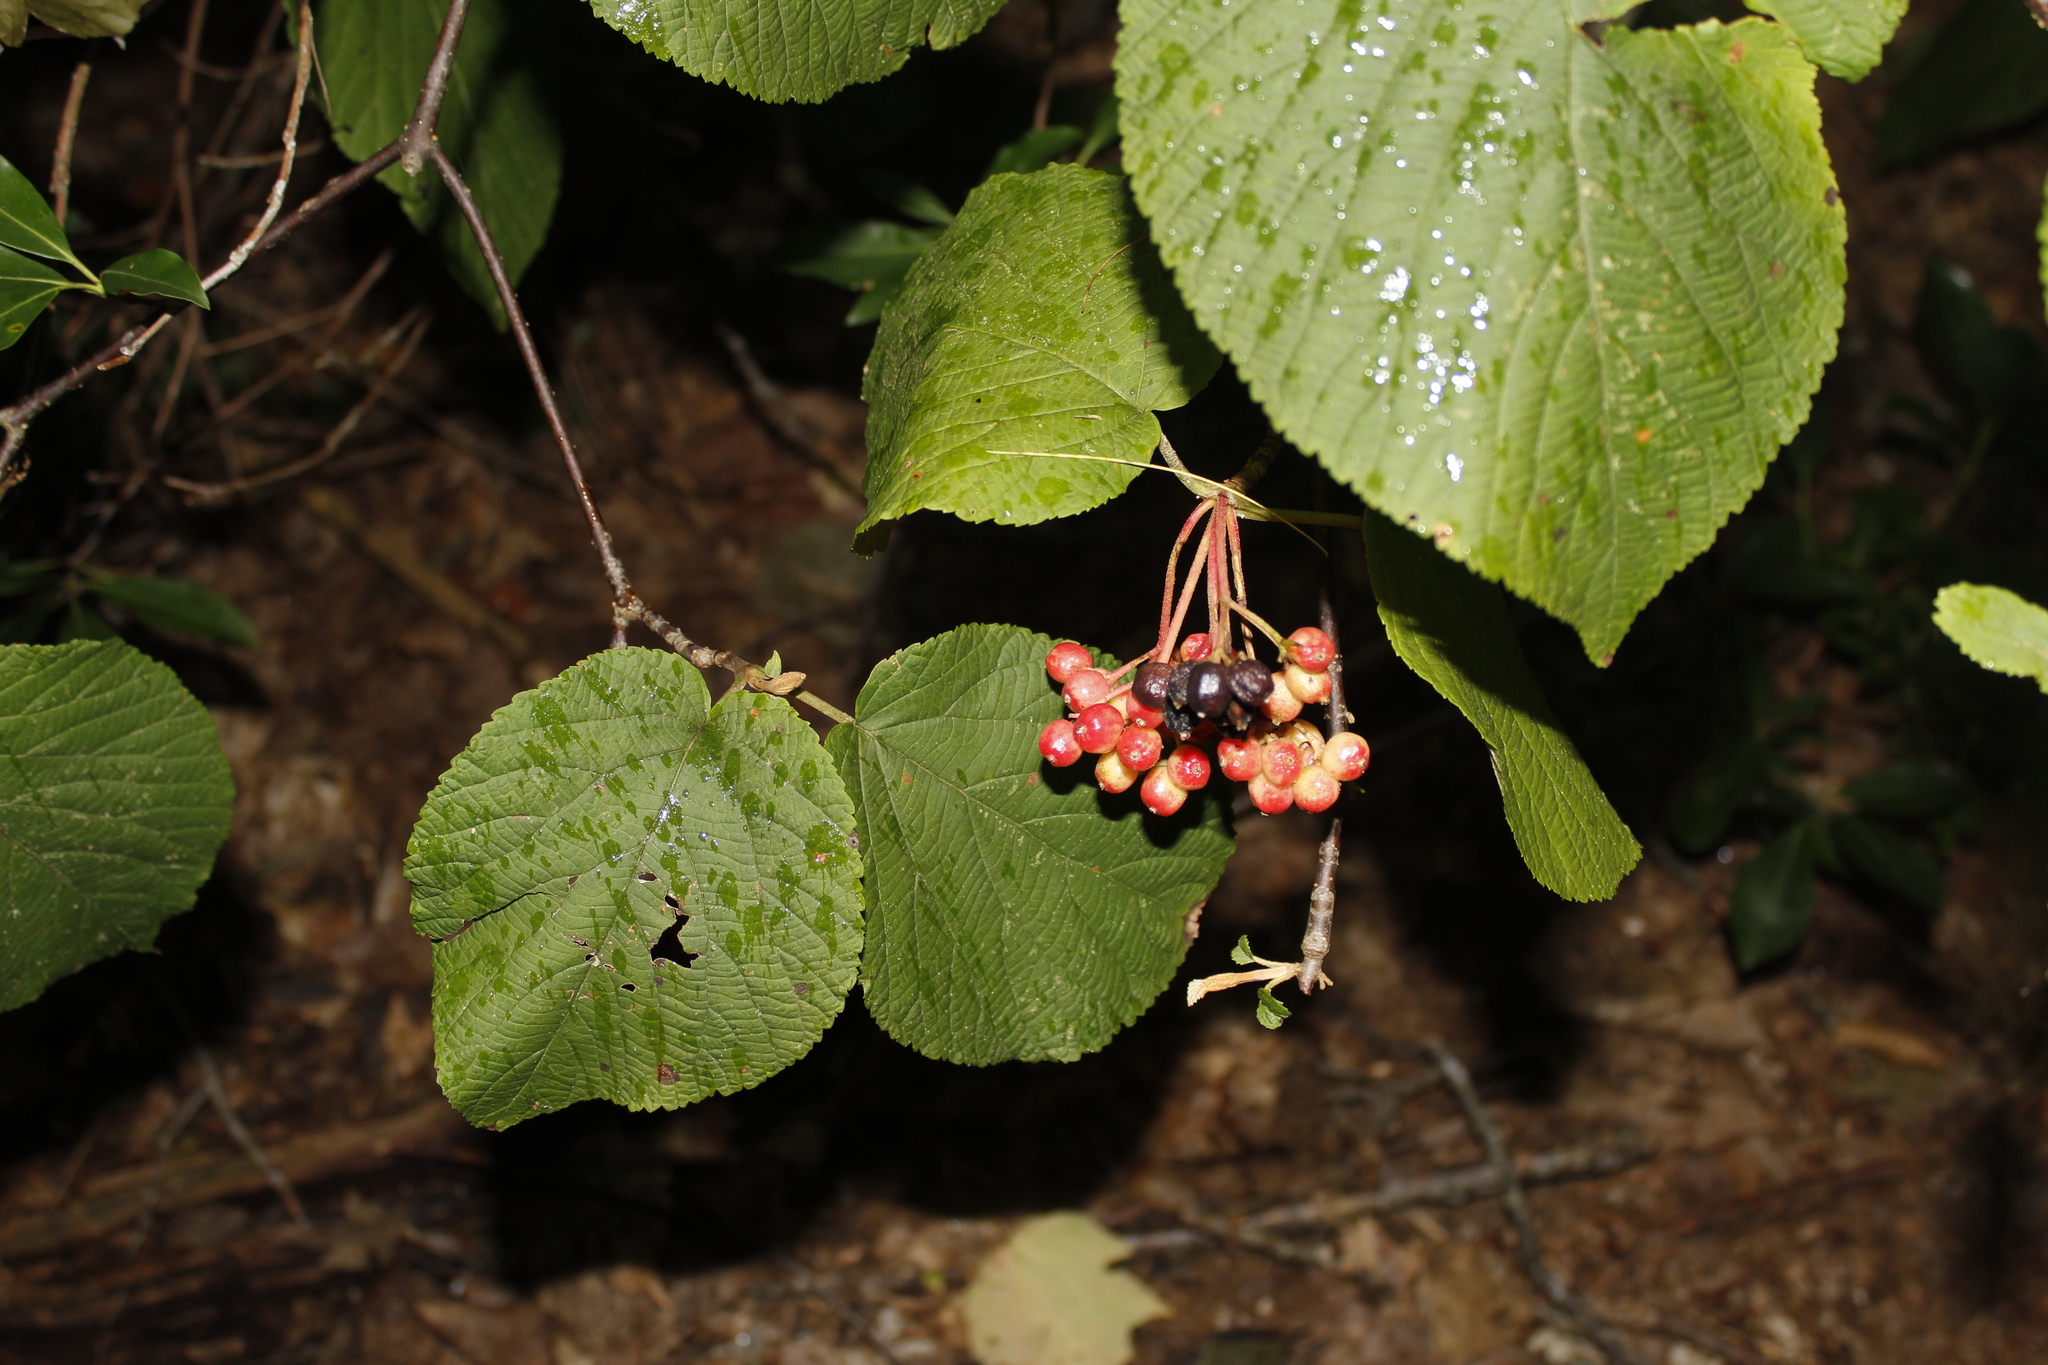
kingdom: Plantae
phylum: Tracheophyta
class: Magnoliopsida
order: Dipsacales
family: Viburnaceae
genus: Viburnum
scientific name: Viburnum lantanoides
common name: Hobblebush
